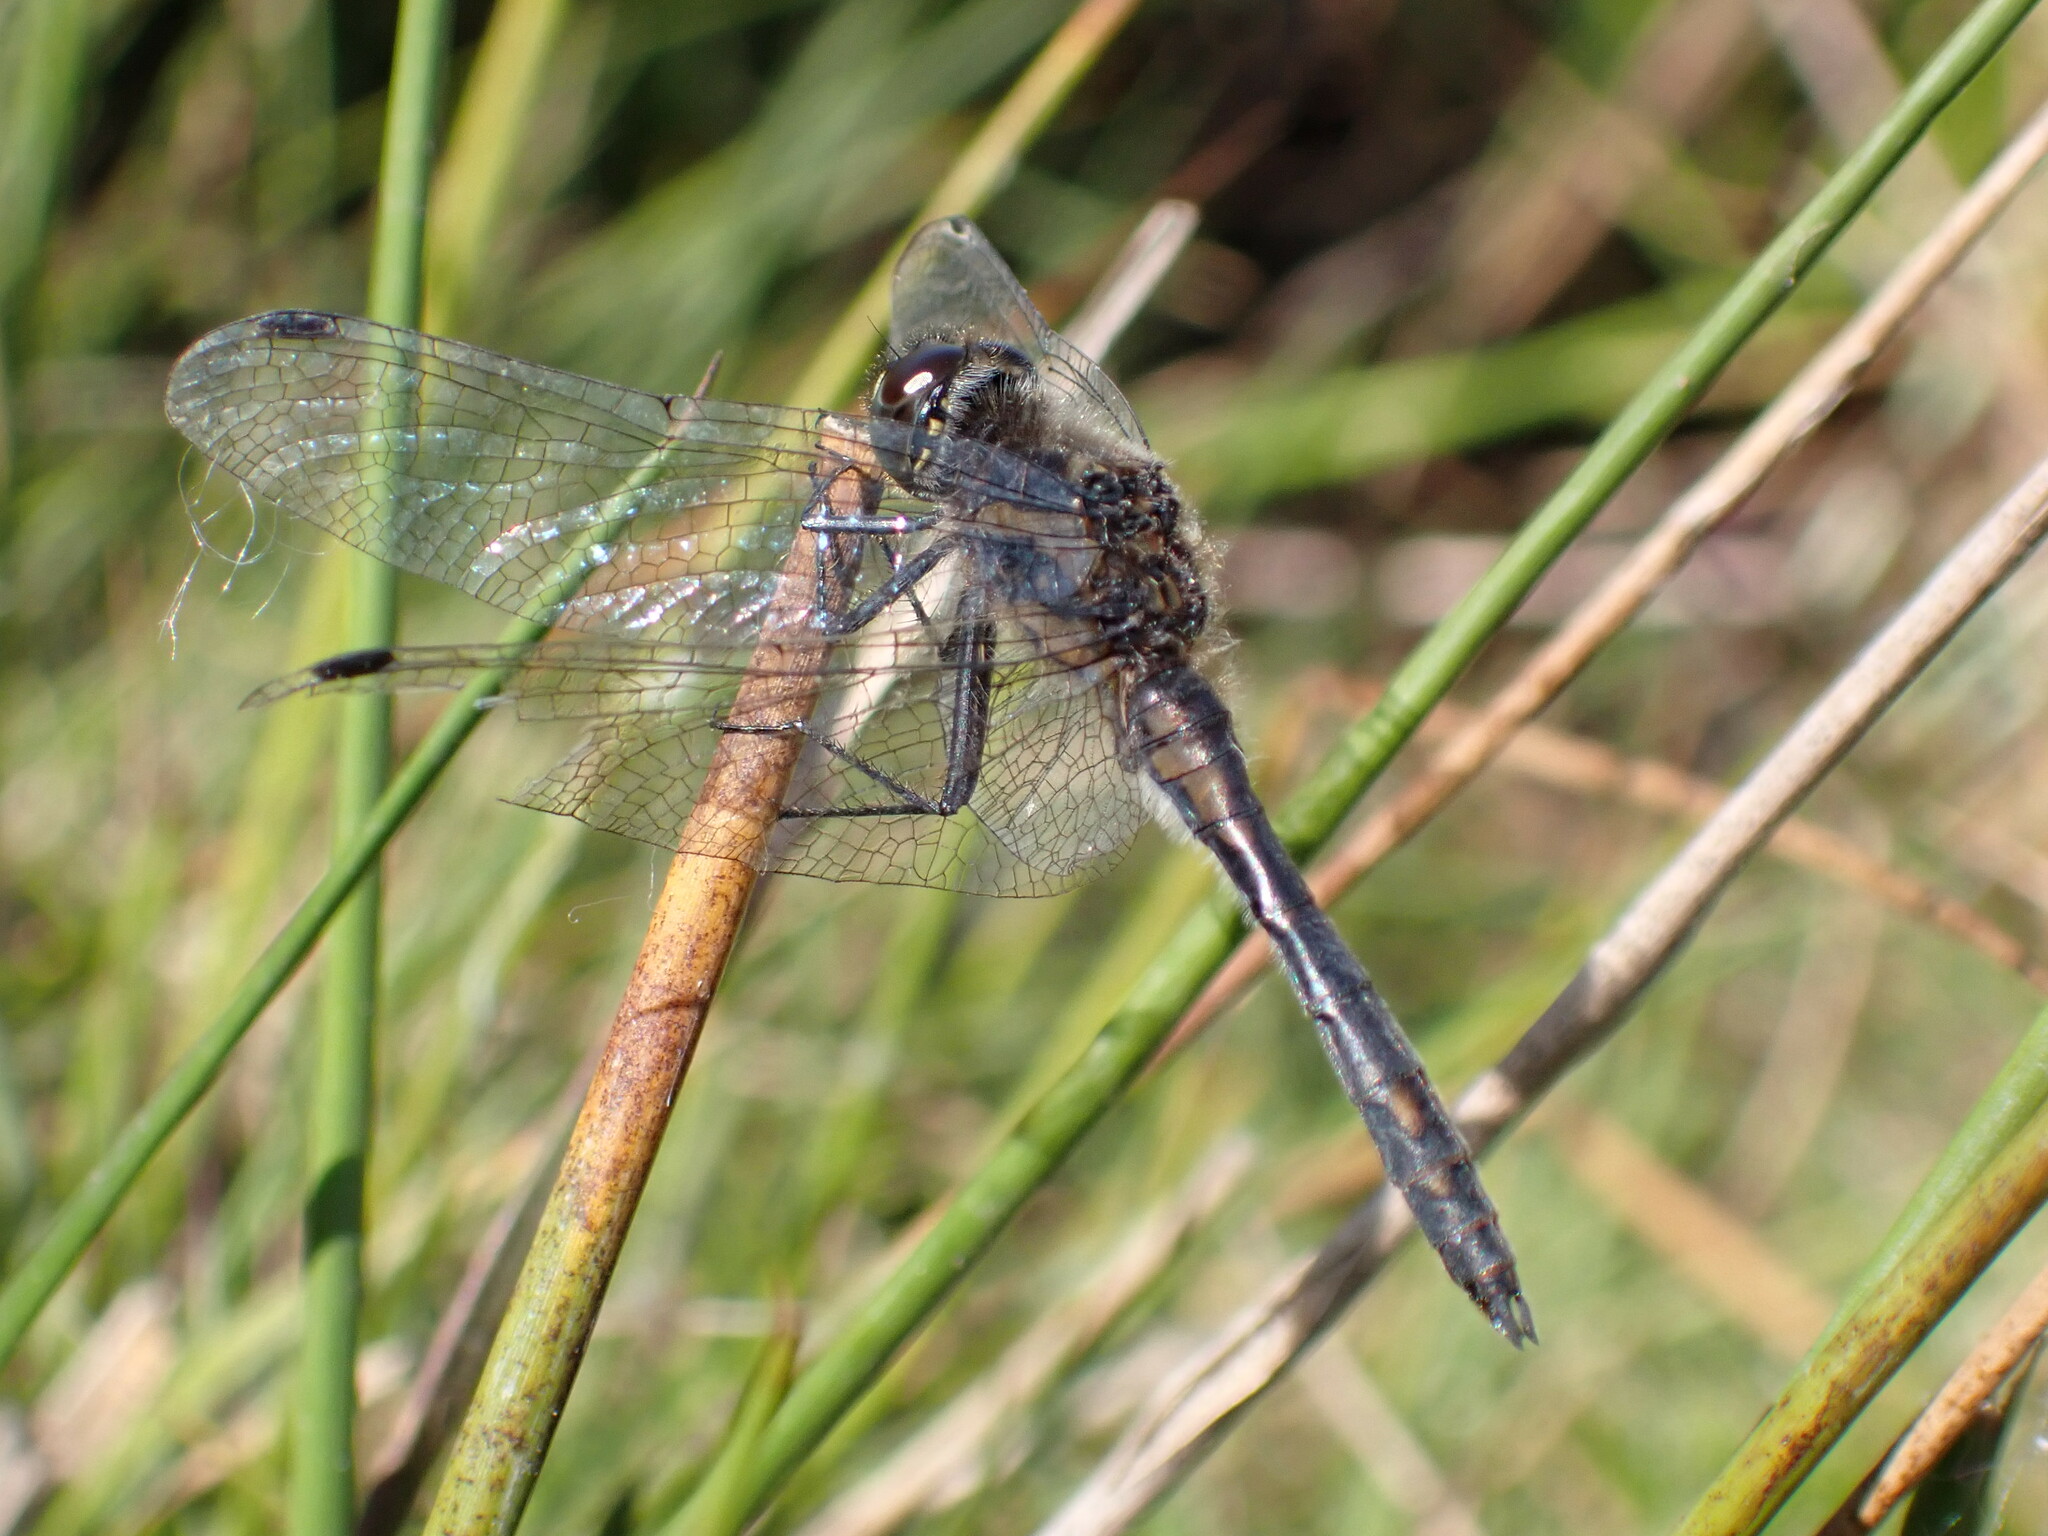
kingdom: Animalia
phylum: Arthropoda
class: Insecta
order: Odonata
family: Libellulidae
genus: Sympetrum
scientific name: Sympetrum danae
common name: Black darter
